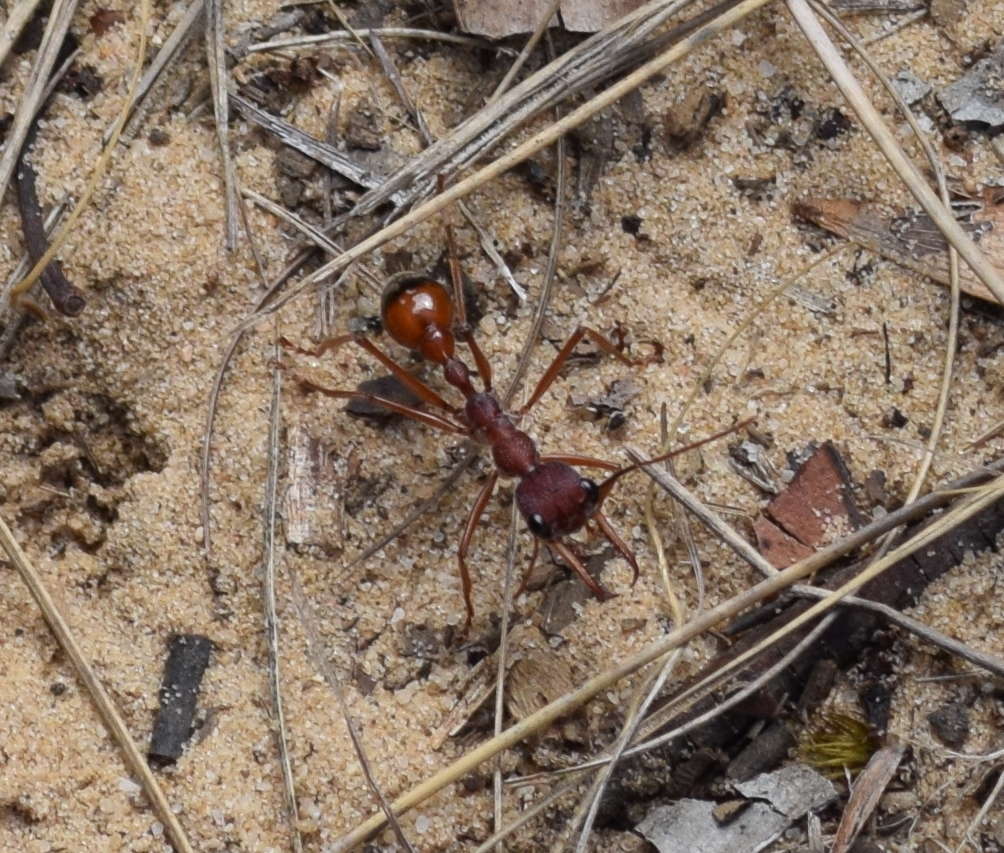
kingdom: Animalia
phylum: Arthropoda
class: Insecta
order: Hymenoptera
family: Formicidae
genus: Myrmecia
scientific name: Myrmecia nigriscapa
